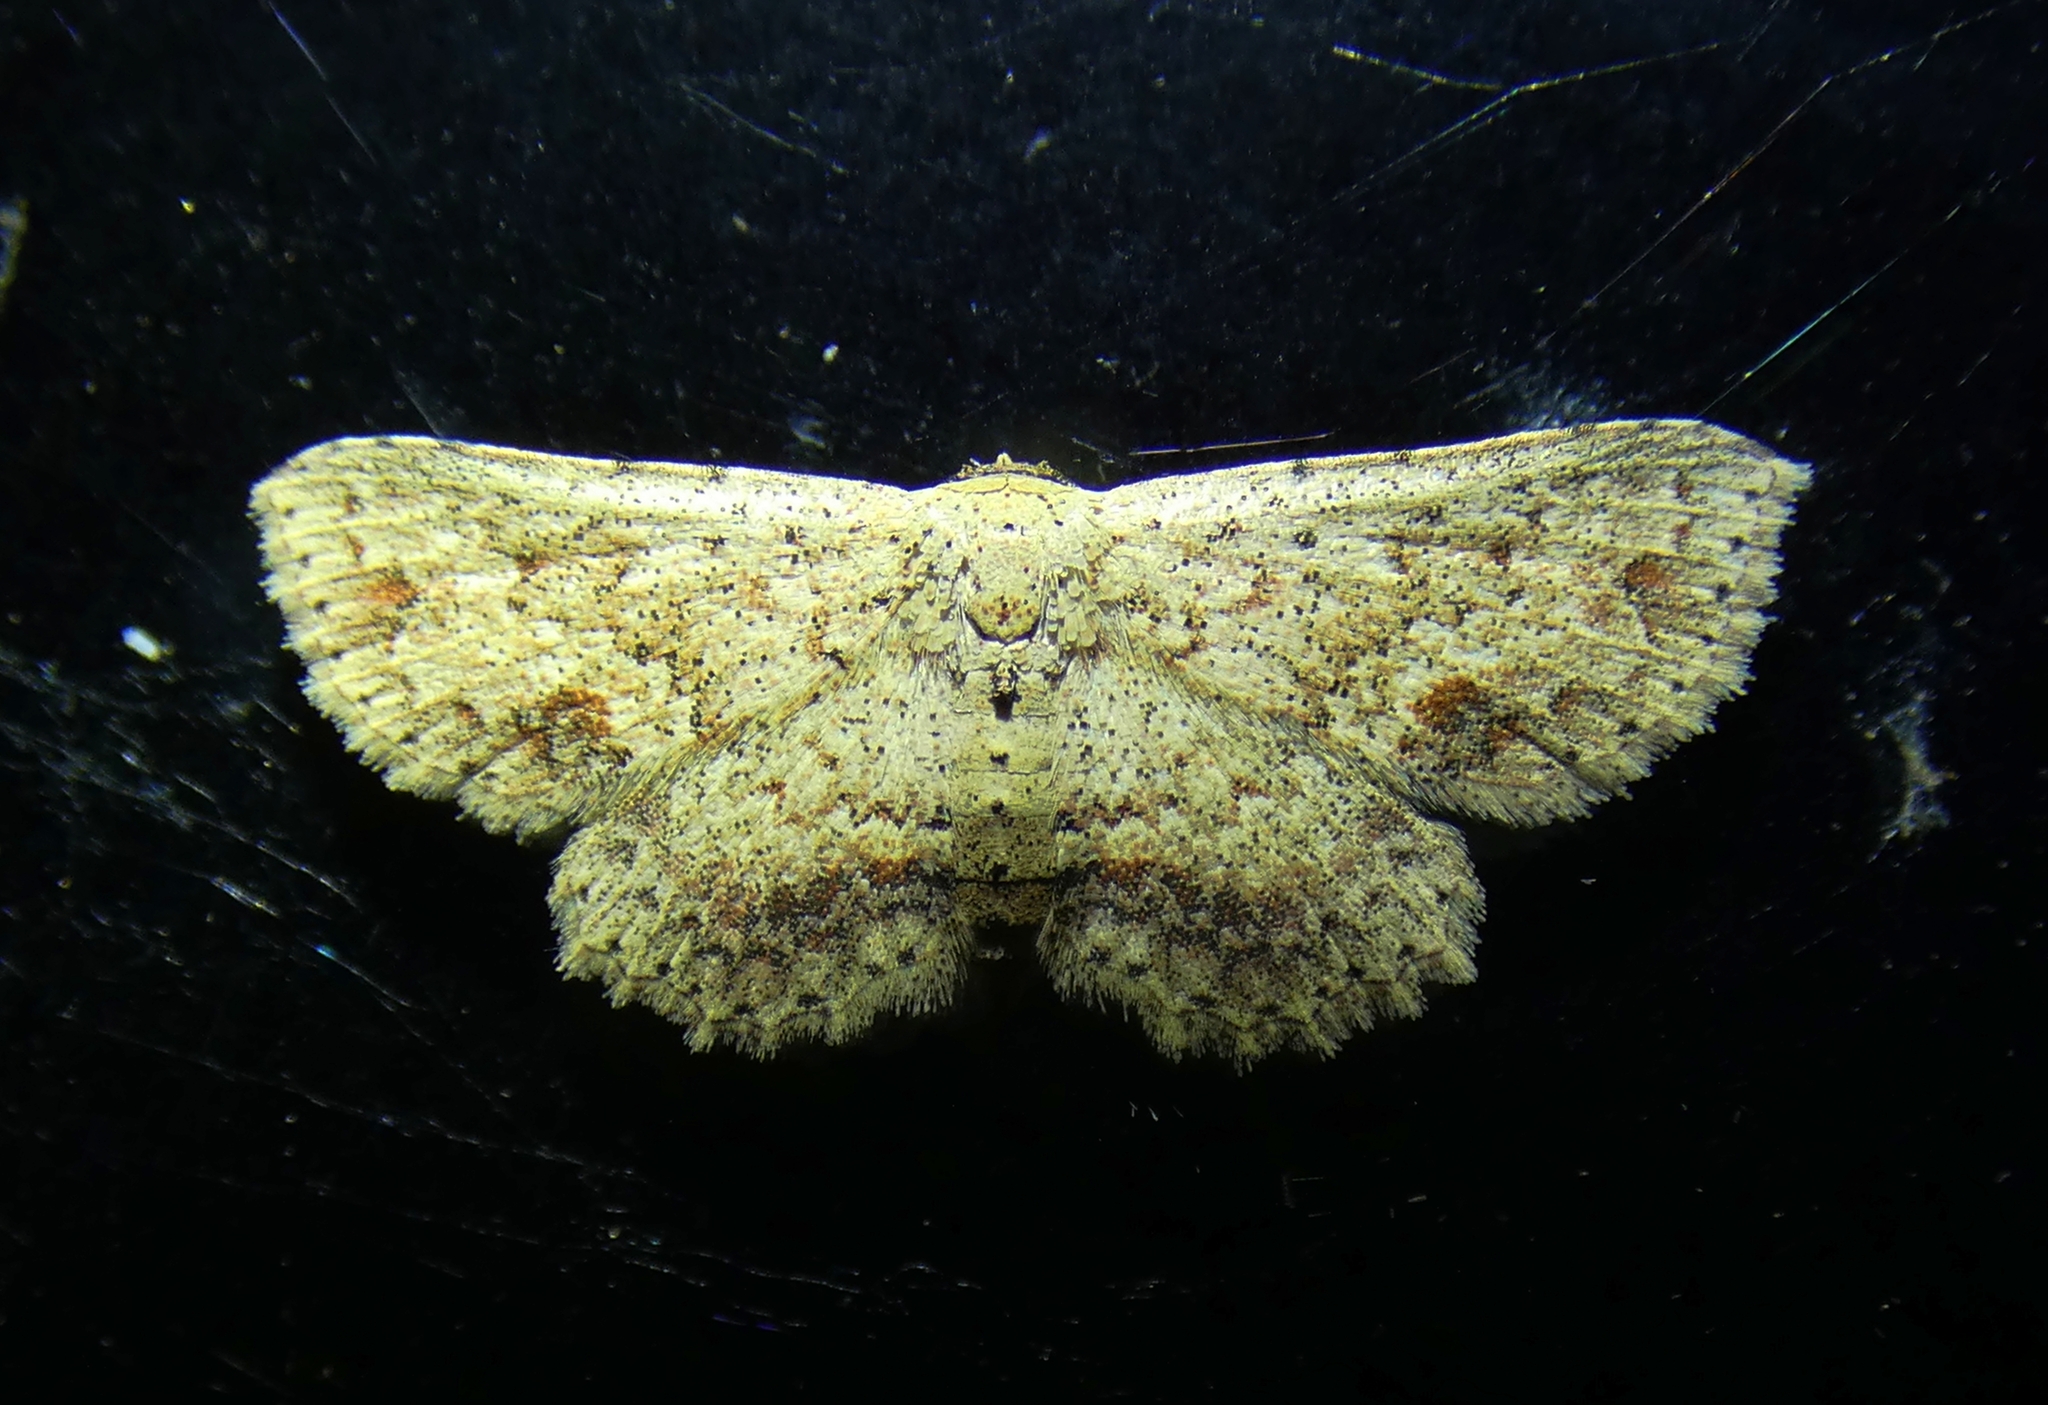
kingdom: Animalia
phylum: Arthropoda
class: Insecta
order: Lepidoptera
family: Noctuidae
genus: Obana
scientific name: Obana vagipennata
